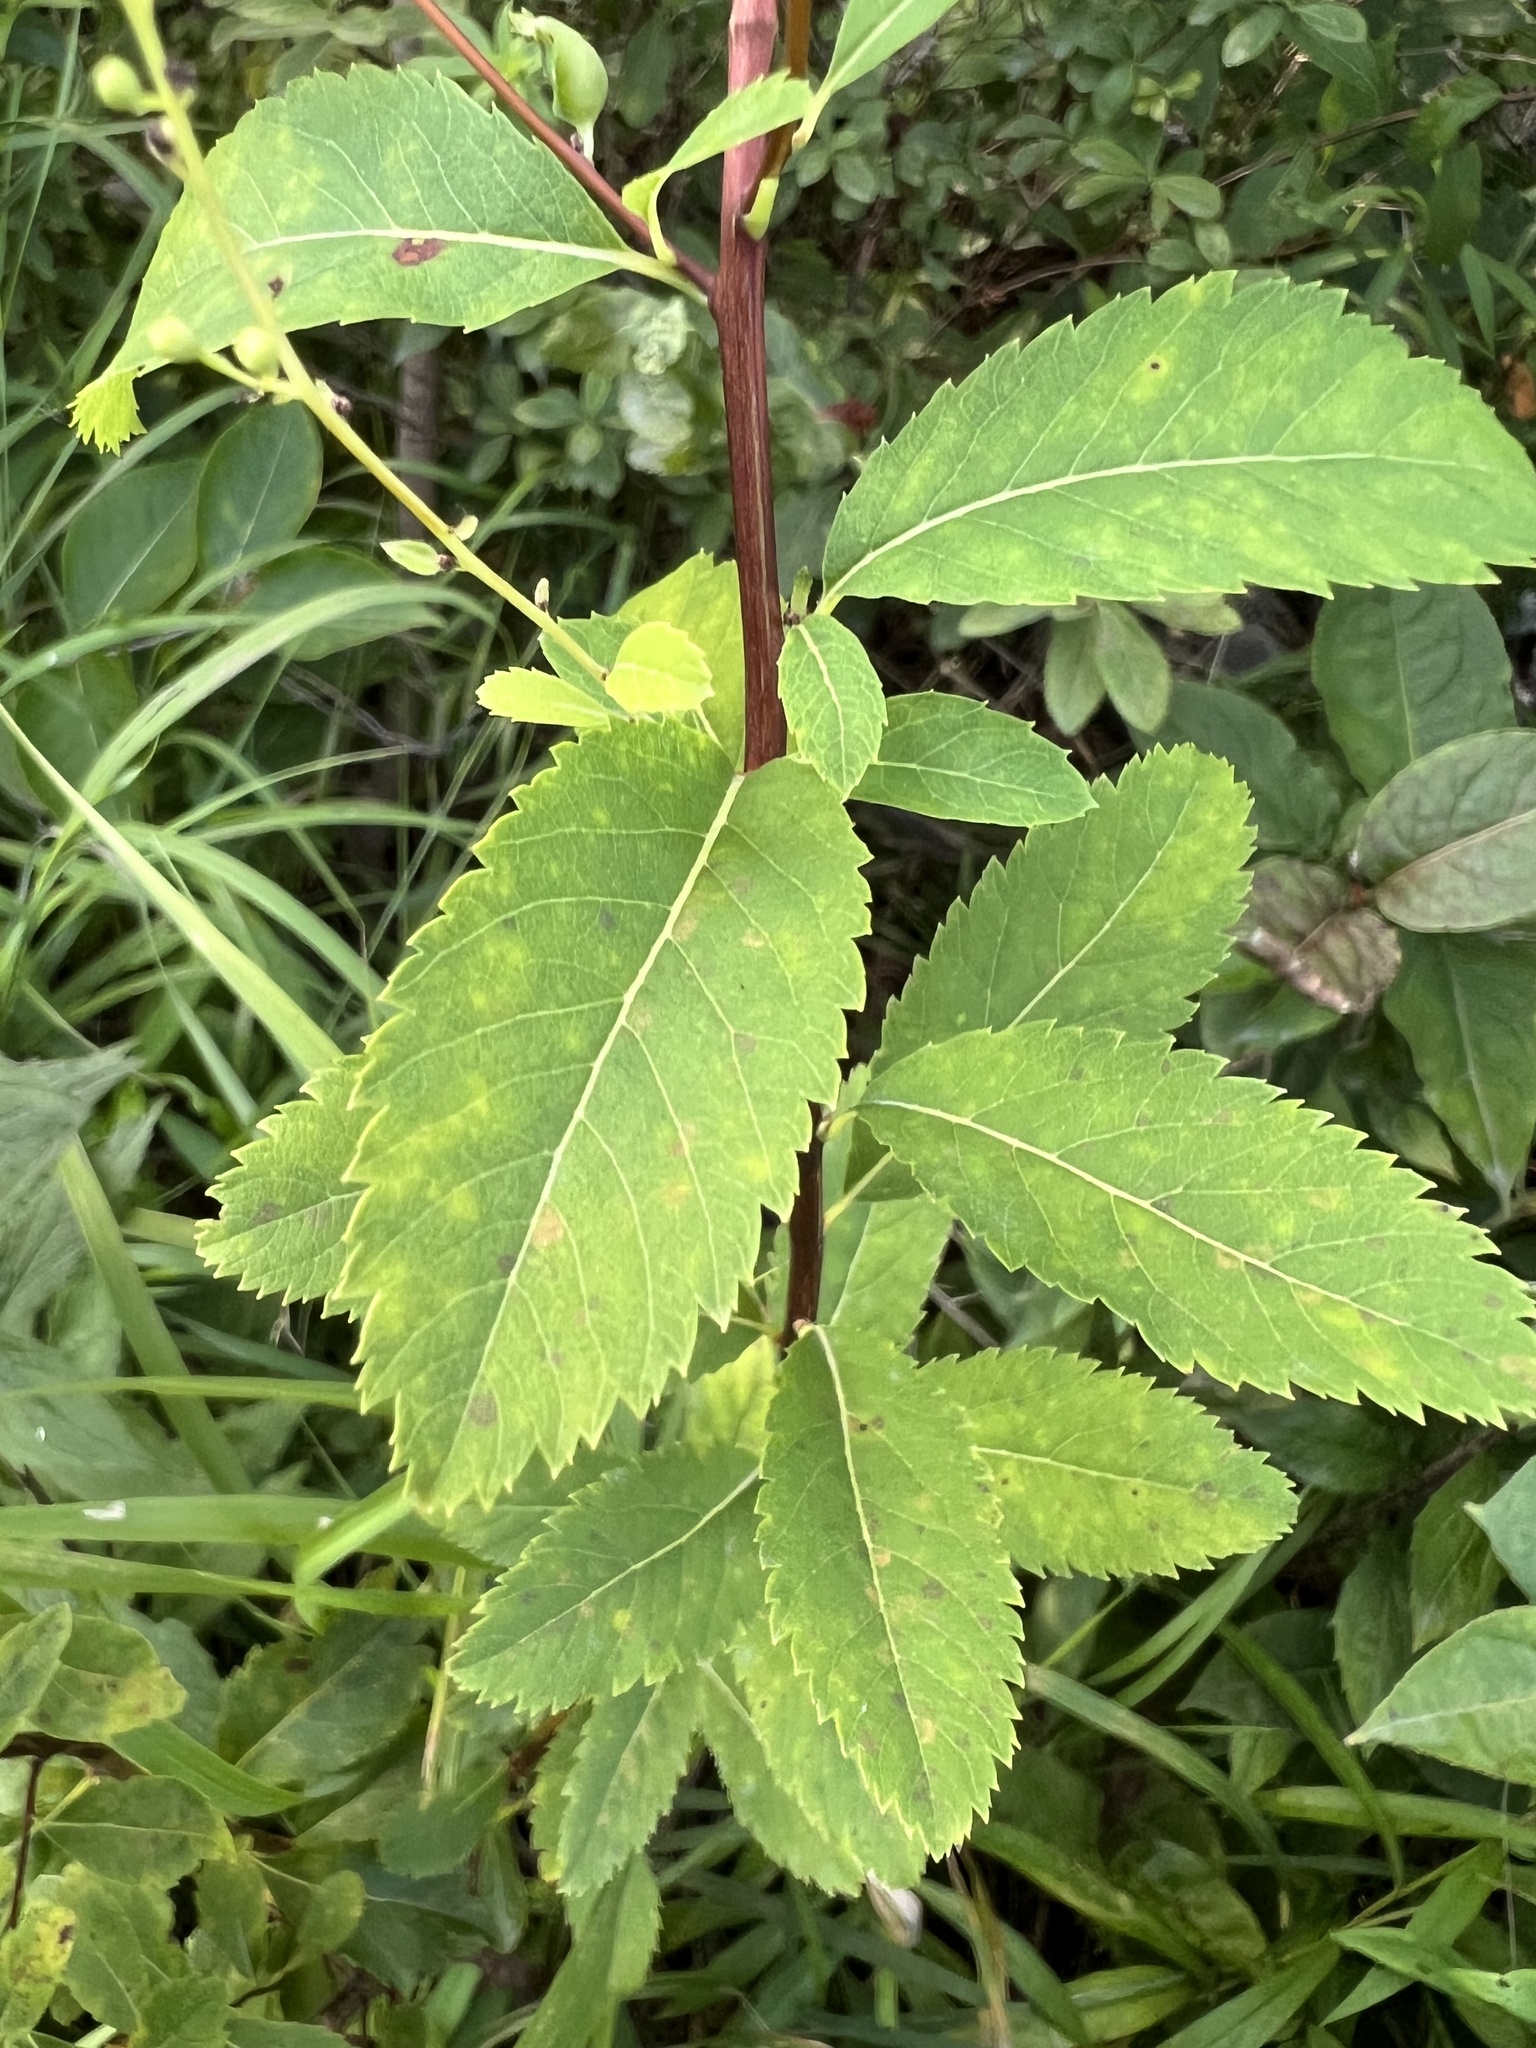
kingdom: Plantae
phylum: Tracheophyta
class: Magnoliopsida
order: Rosales
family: Rosaceae
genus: Spiraea
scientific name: Spiraea alba
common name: Pale bridewort
